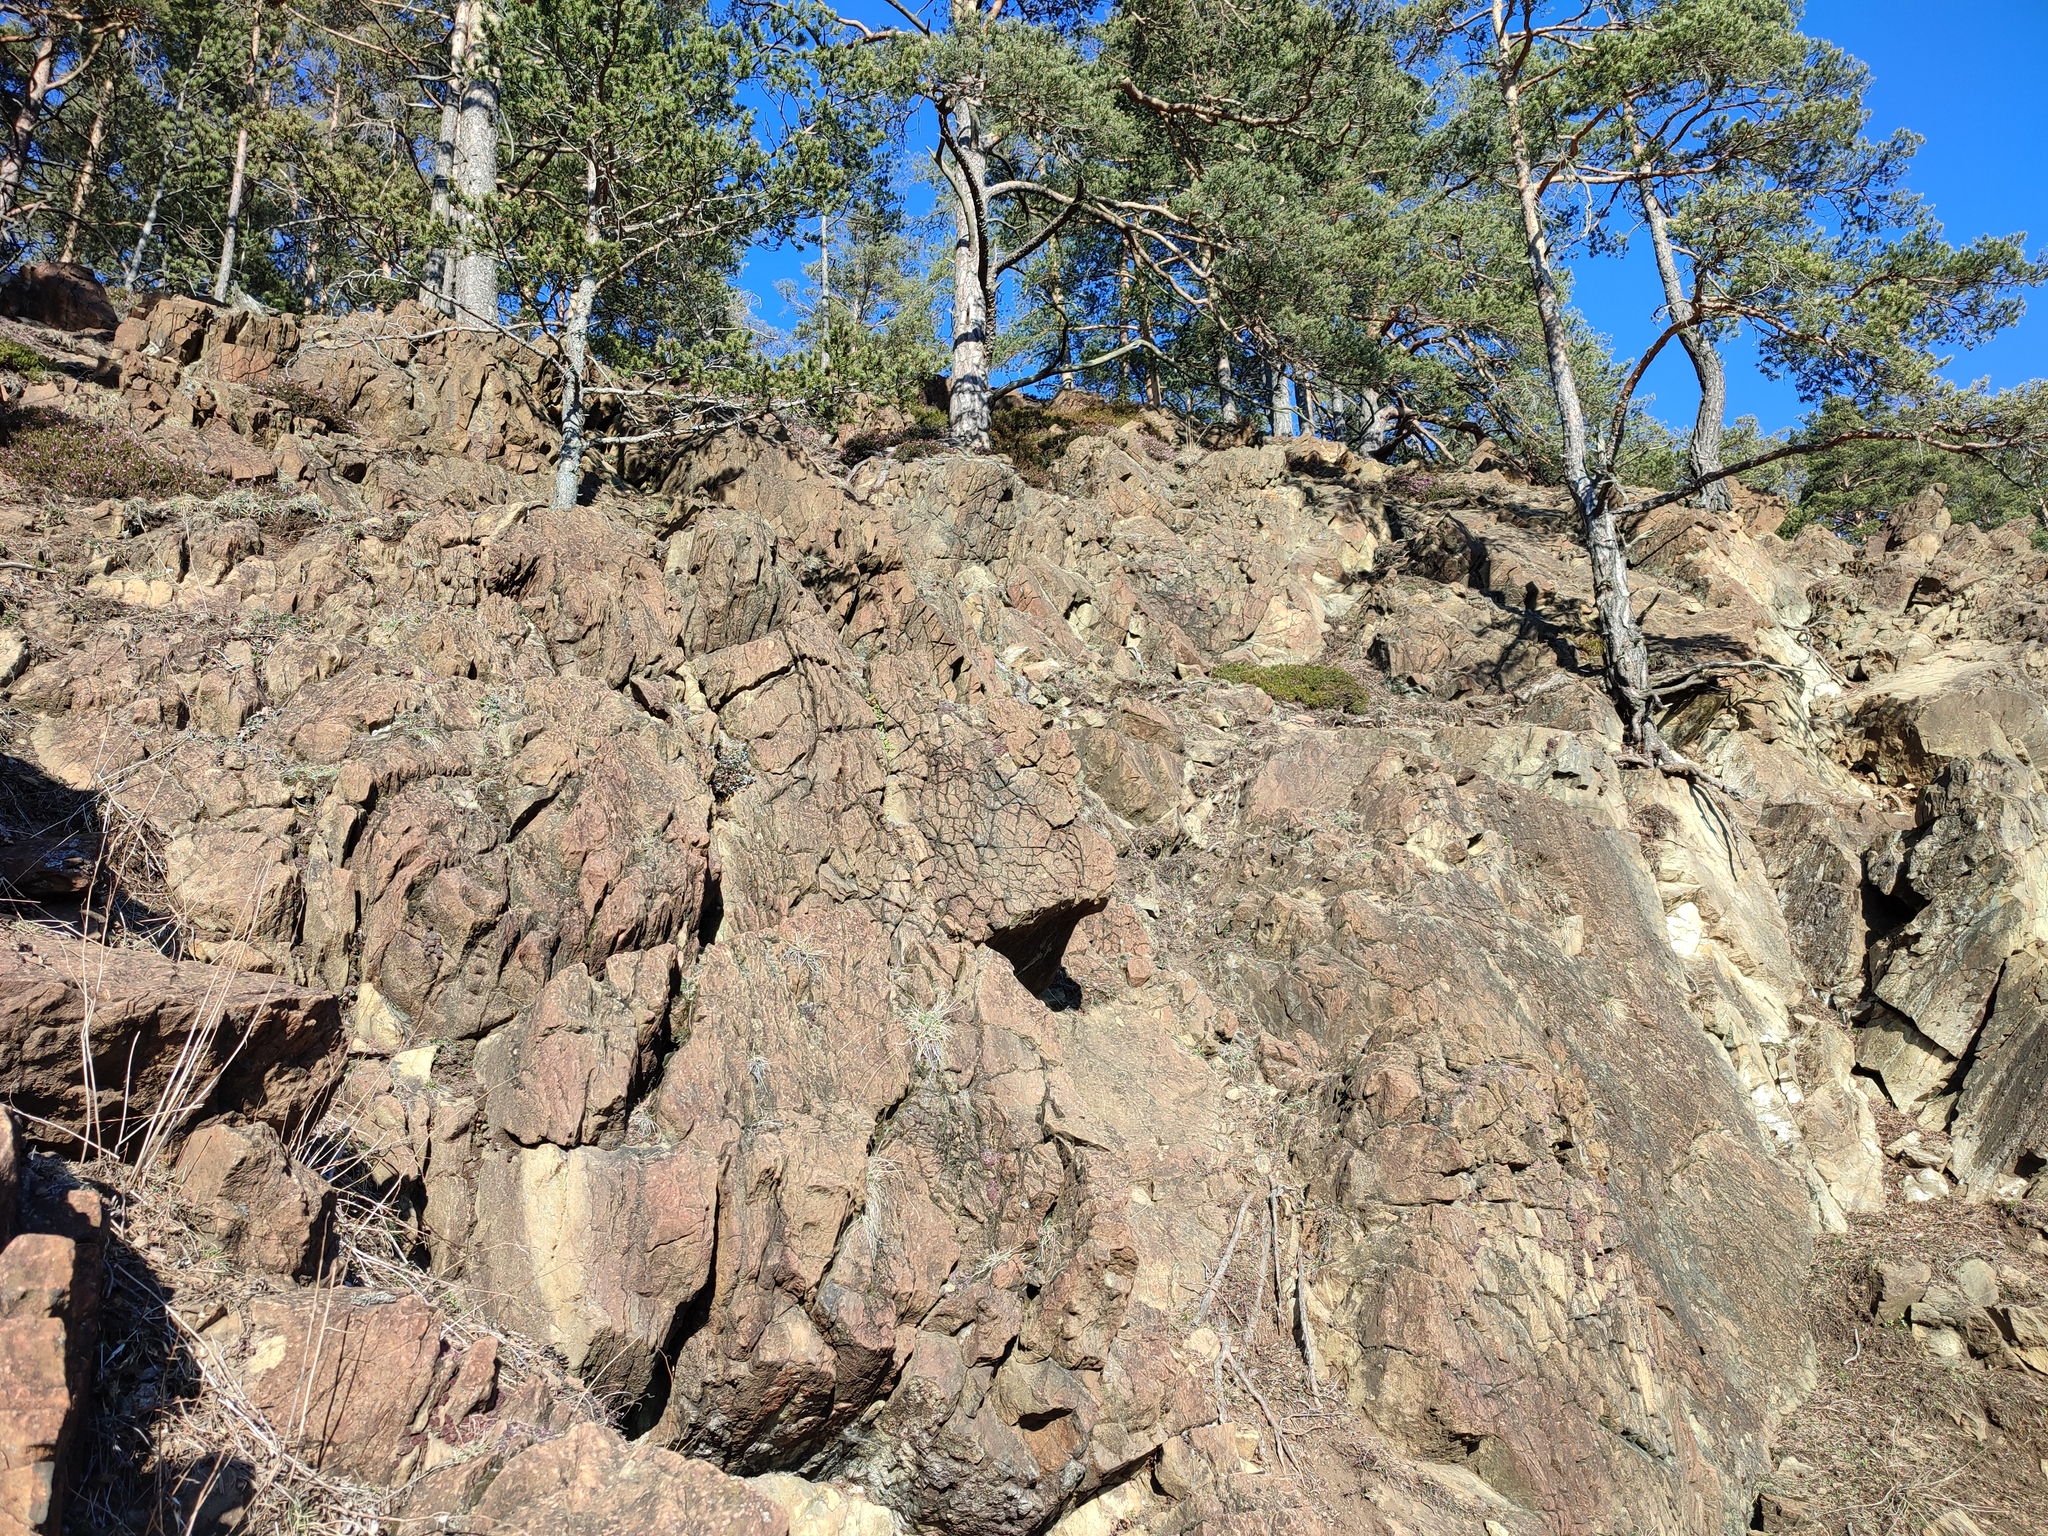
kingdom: Plantae
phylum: Tracheophyta
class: Pinopsida
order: Pinales
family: Pinaceae
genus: Pinus
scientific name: Pinus sylvestris
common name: Scots pine
